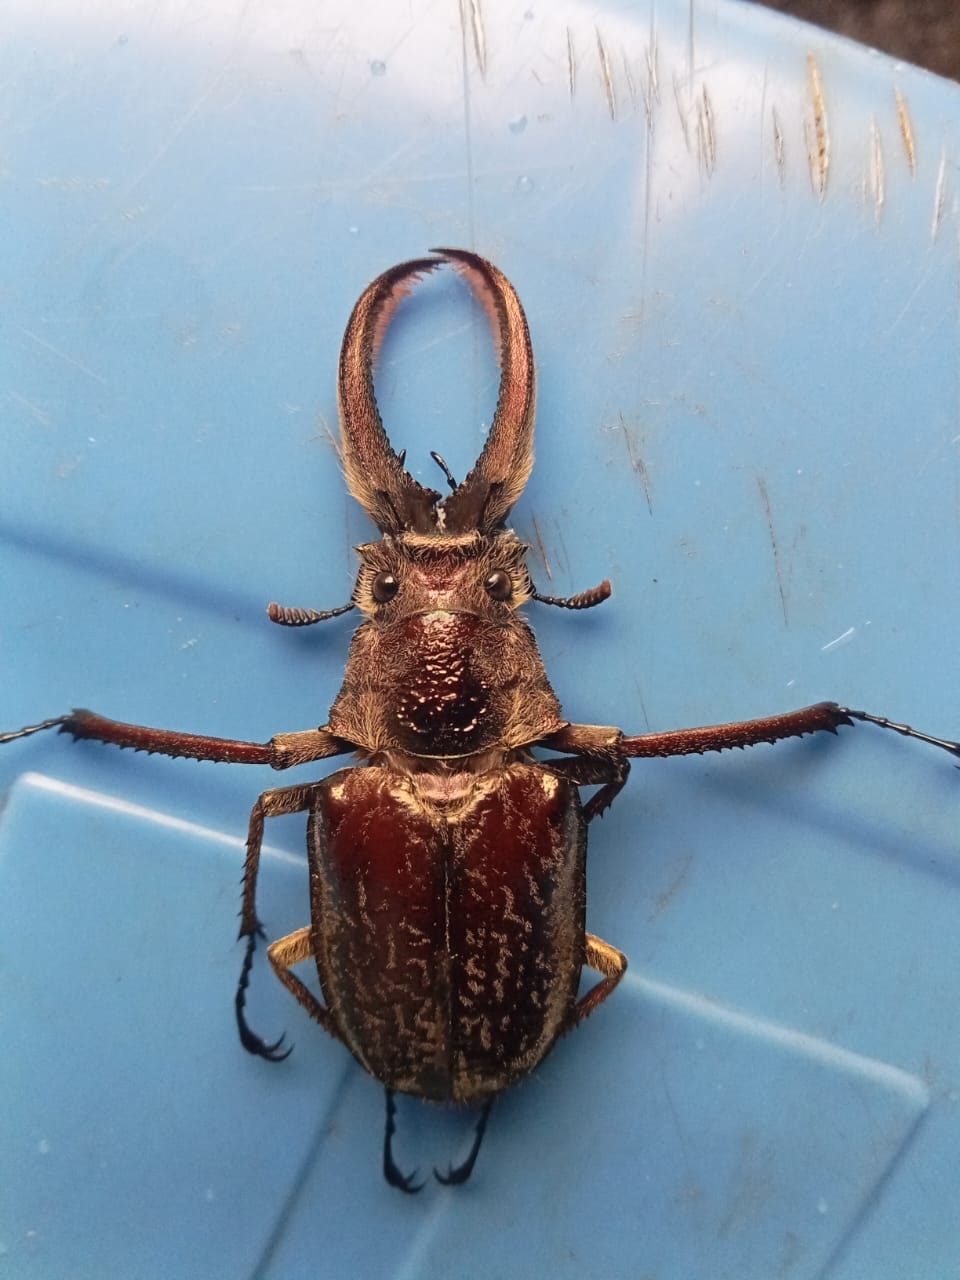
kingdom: Animalia
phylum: Arthropoda
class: Insecta
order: Coleoptera
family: Lucanidae
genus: Sphaenognathus
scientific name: Sphaenognathus giganteus
